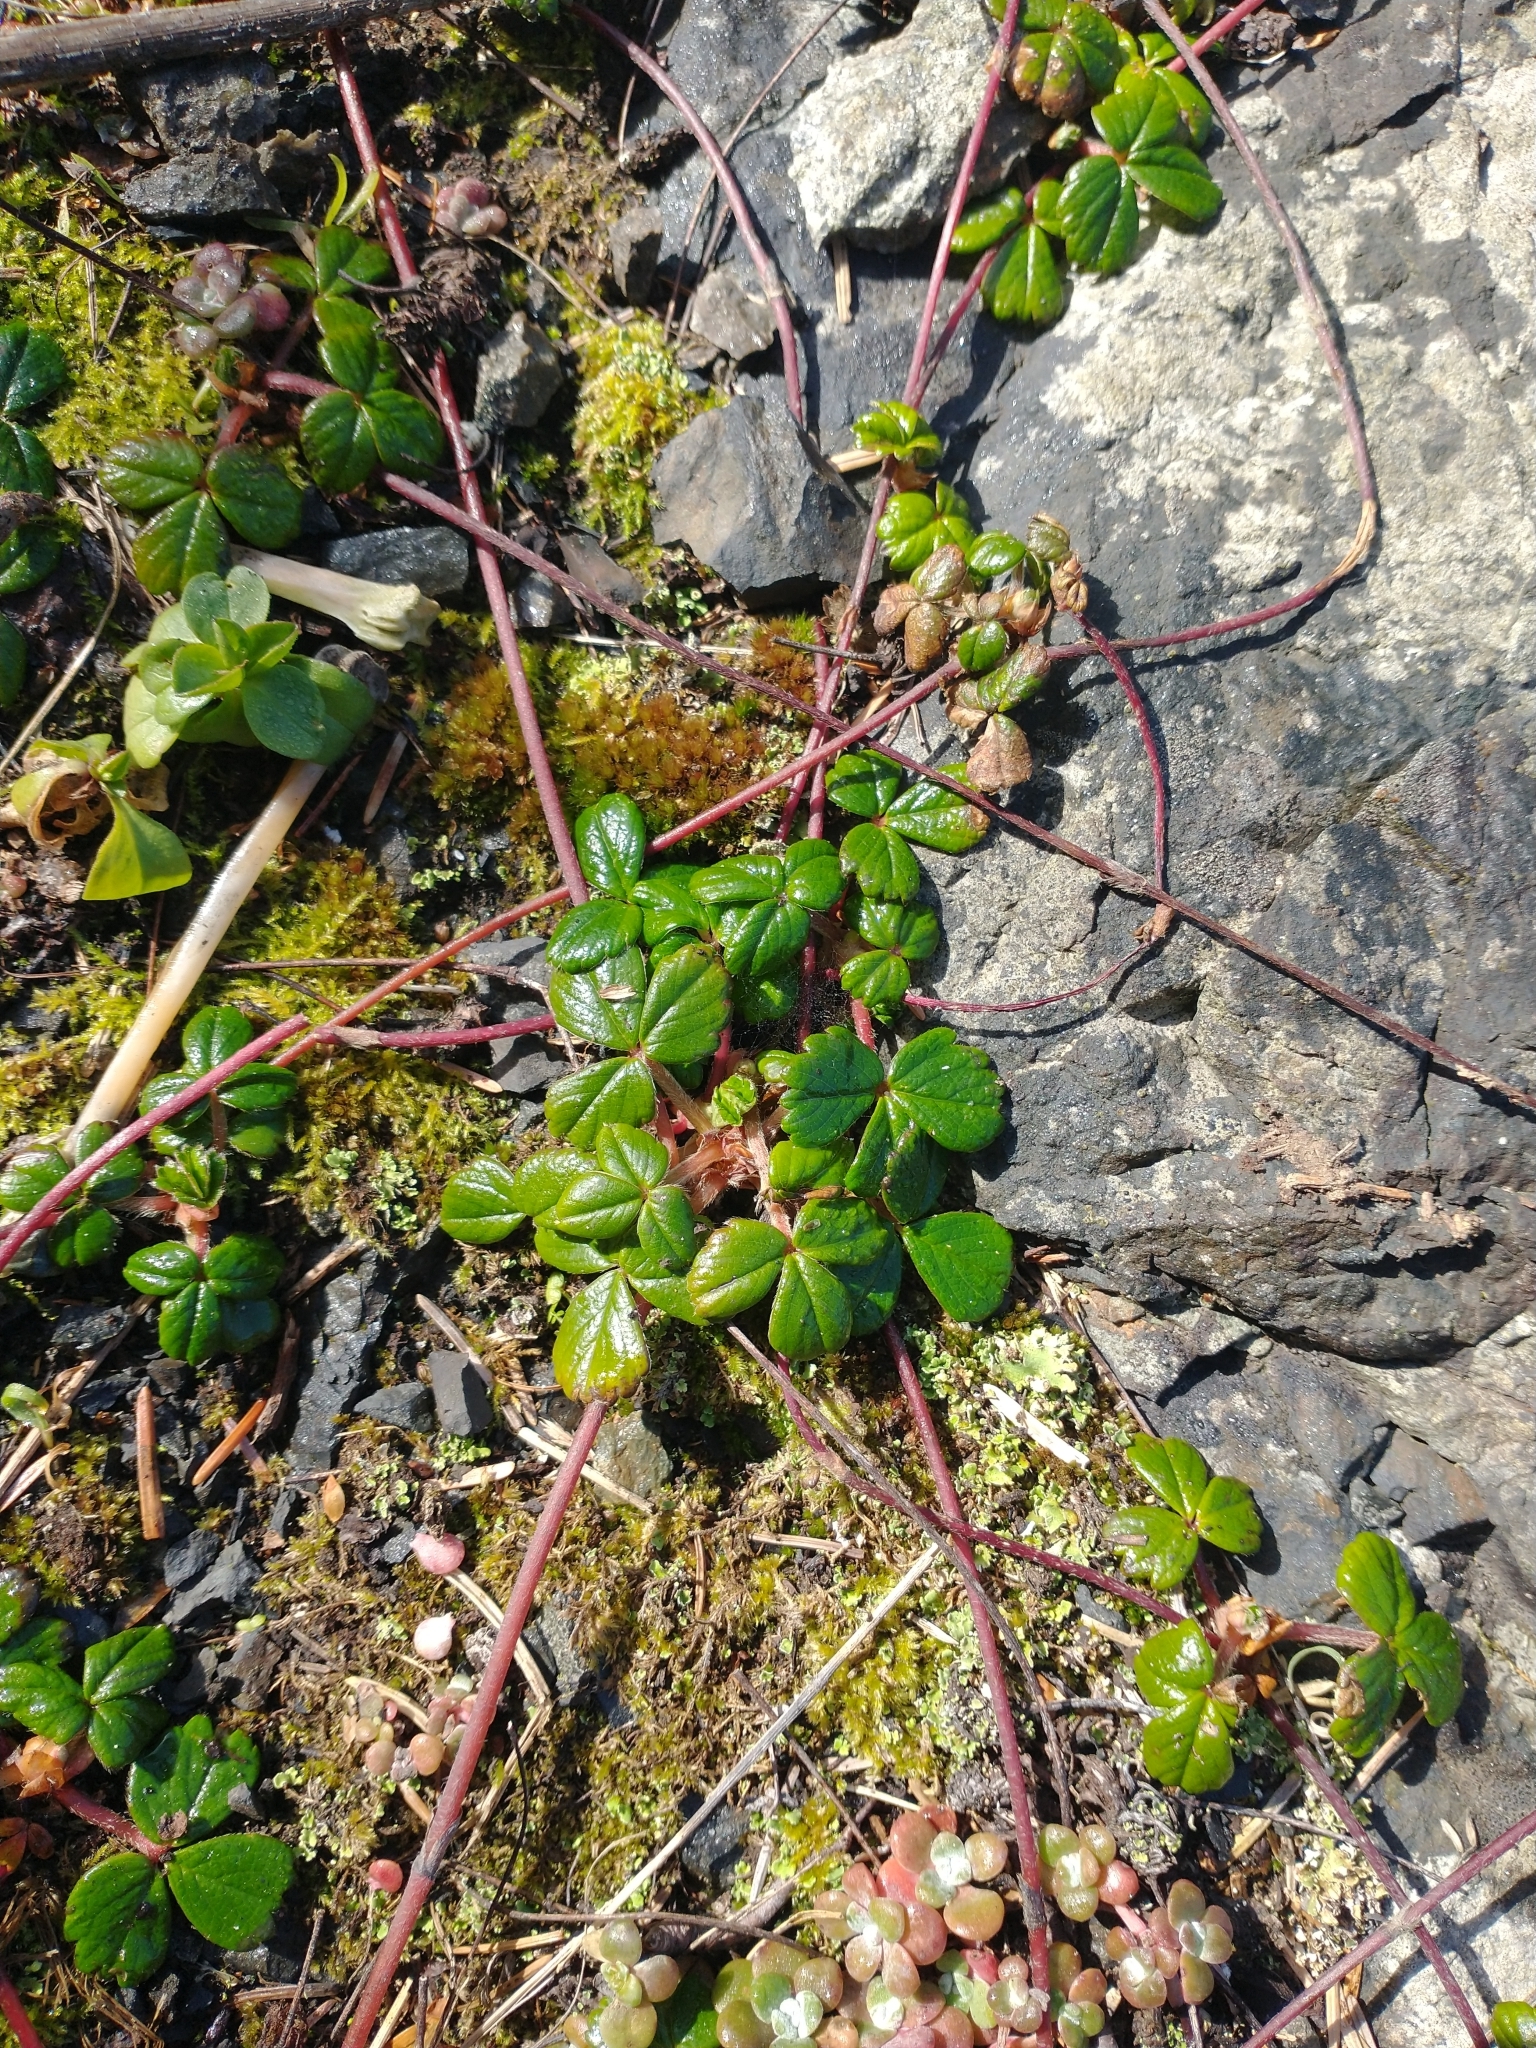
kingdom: Plantae
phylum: Tracheophyta
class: Magnoliopsida
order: Rosales
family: Rosaceae
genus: Fragaria
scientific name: Fragaria chiloensis
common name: Beach strawberry
